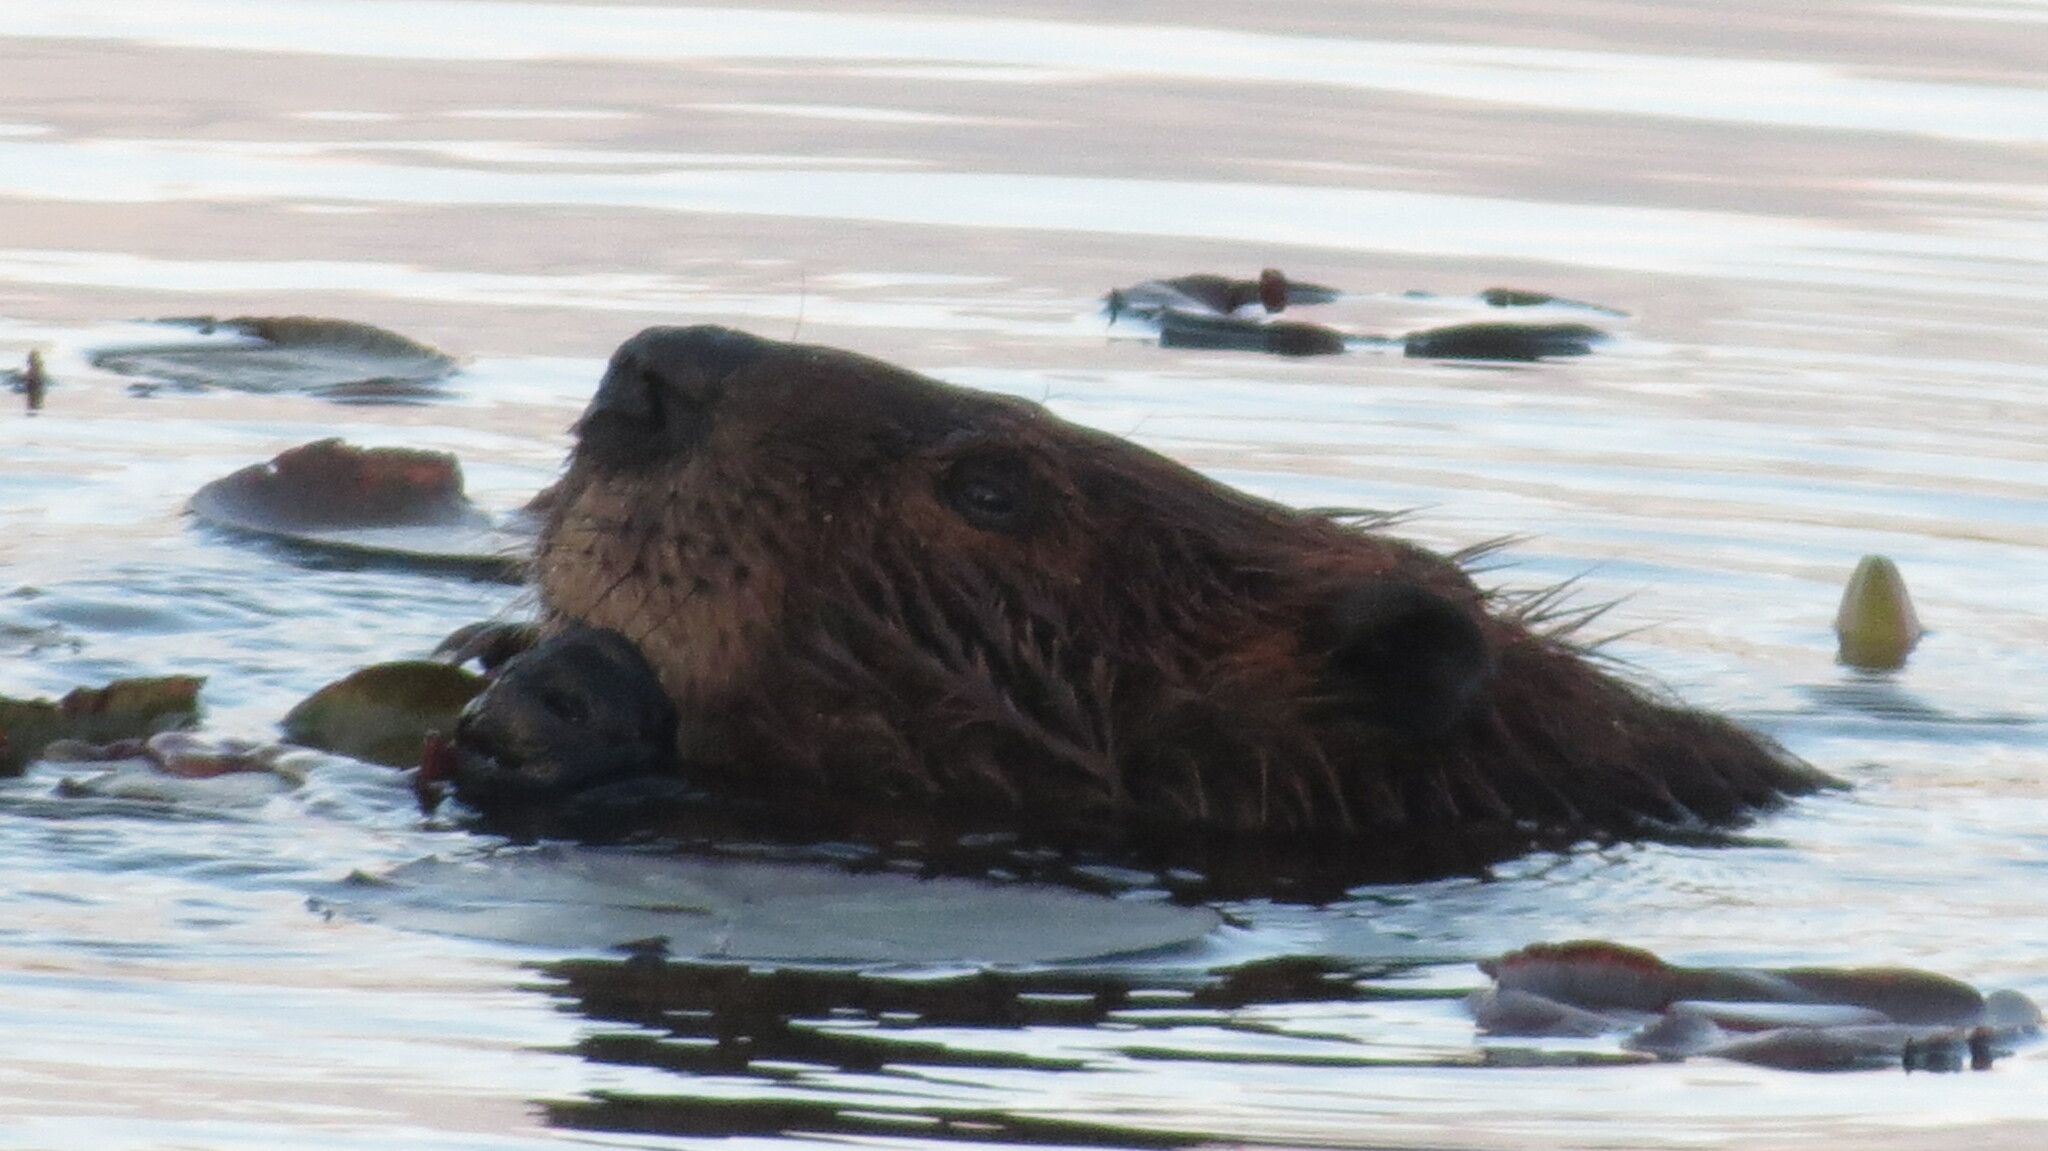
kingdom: Animalia
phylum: Chordata
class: Mammalia
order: Rodentia
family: Castoridae
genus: Castor
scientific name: Castor canadensis
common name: American beaver
